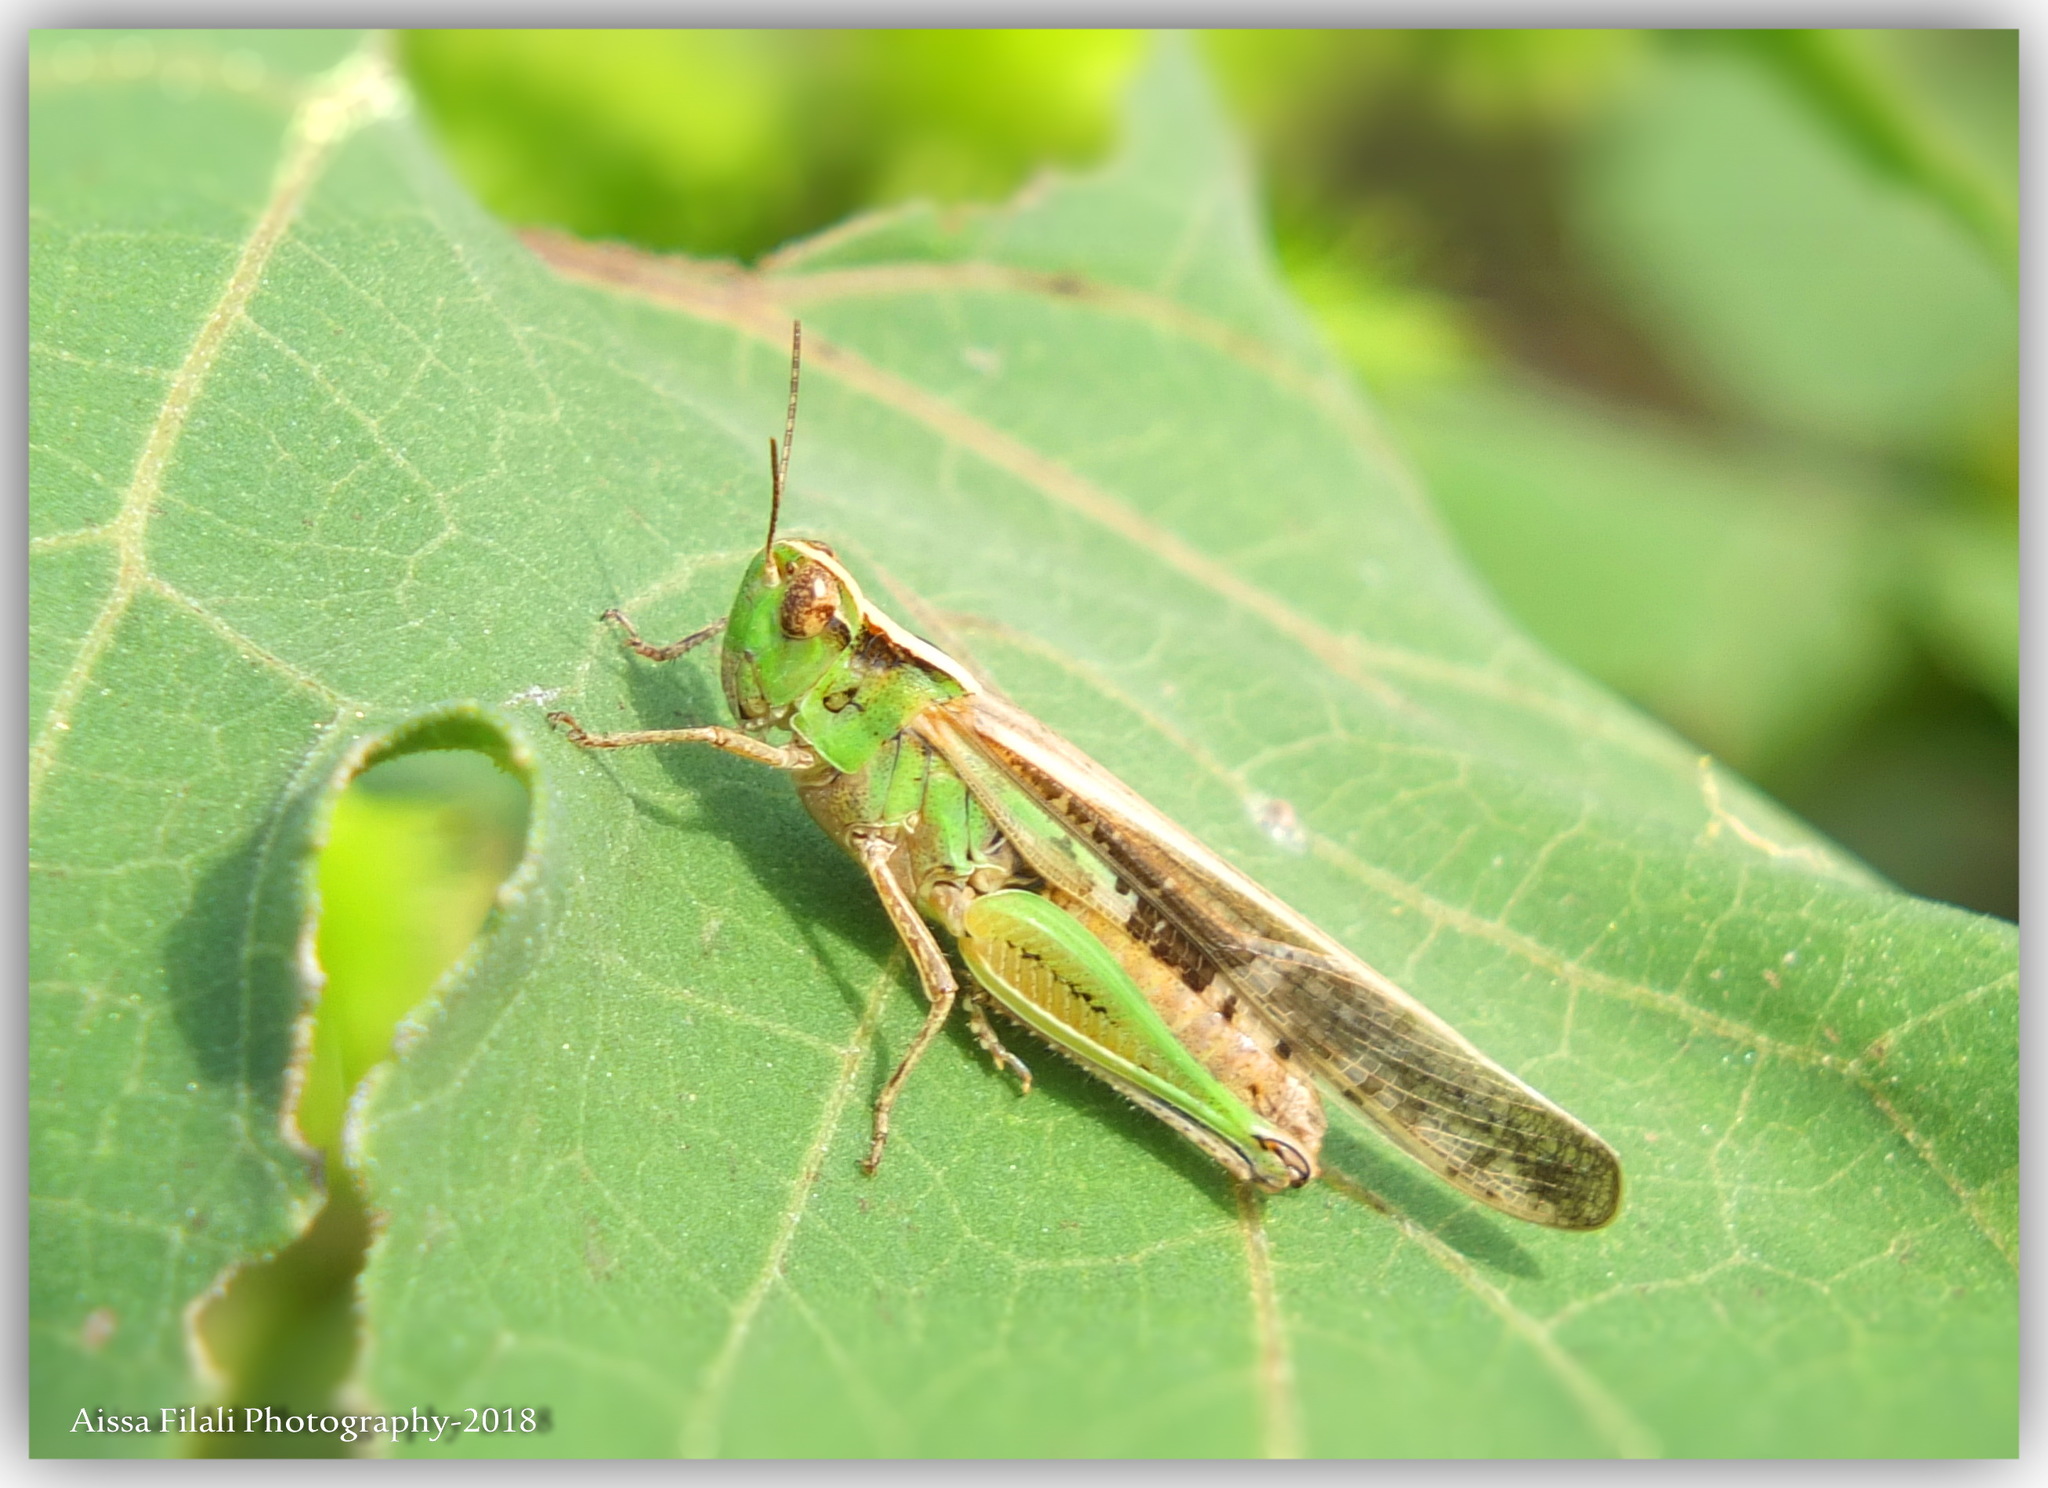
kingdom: Animalia
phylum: Arthropoda
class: Insecta
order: Orthoptera
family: Acrididae
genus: Aiolopus
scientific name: Aiolopus thalassinus
